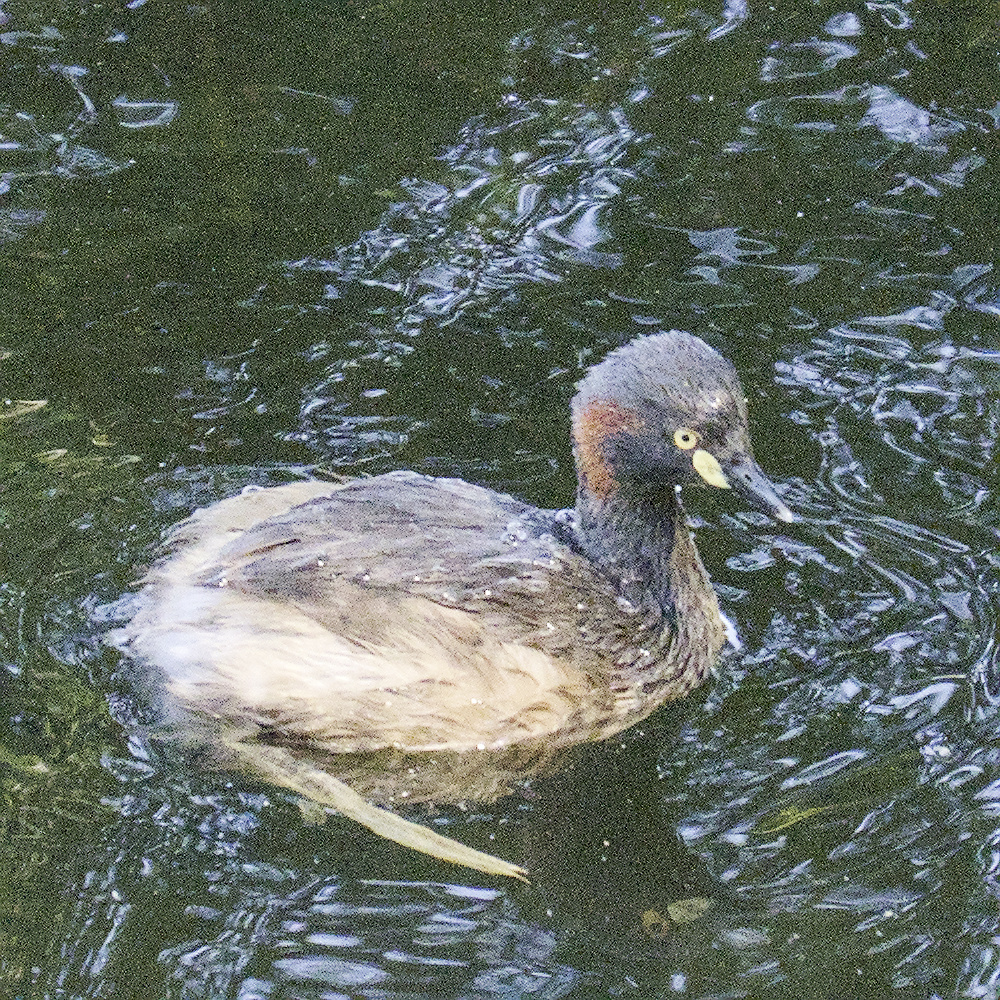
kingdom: Animalia
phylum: Chordata
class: Aves
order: Podicipediformes
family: Podicipedidae
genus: Tachybaptus
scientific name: Tachybaptus novaehollandiae
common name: Australasian grebe
